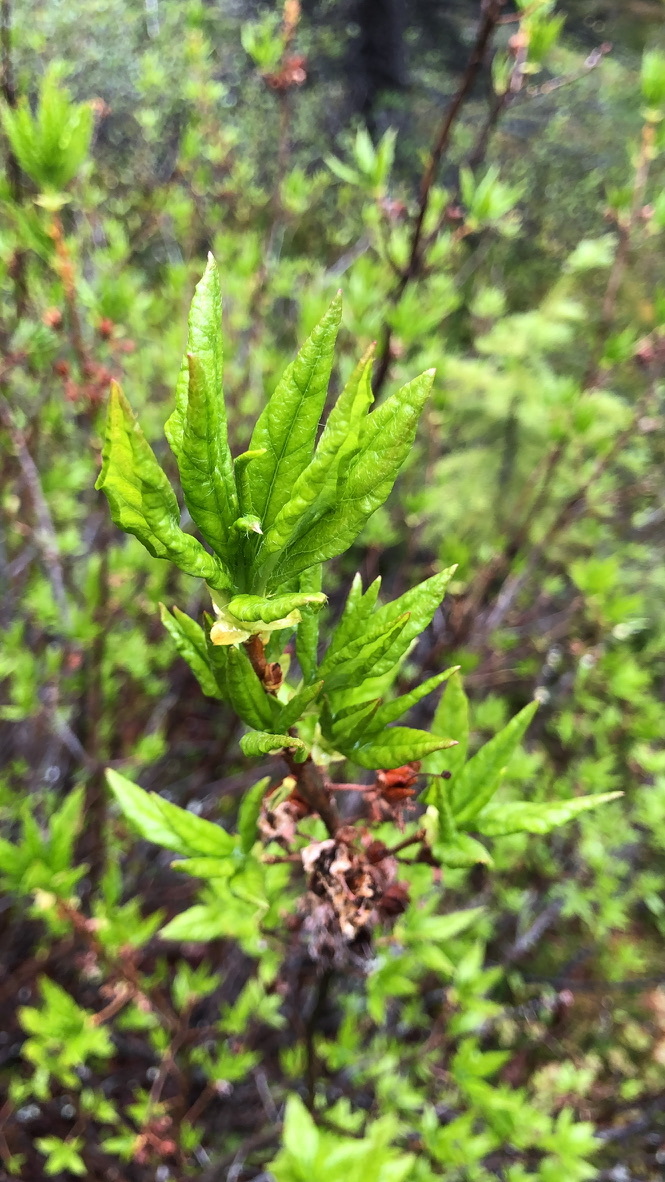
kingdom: Plantae
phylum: Tracheophyta
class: Magnoliopsida
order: Ericales
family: Ericaceae
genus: Rhododendron
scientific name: Rhododendron albiflorum
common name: White rhododendron
